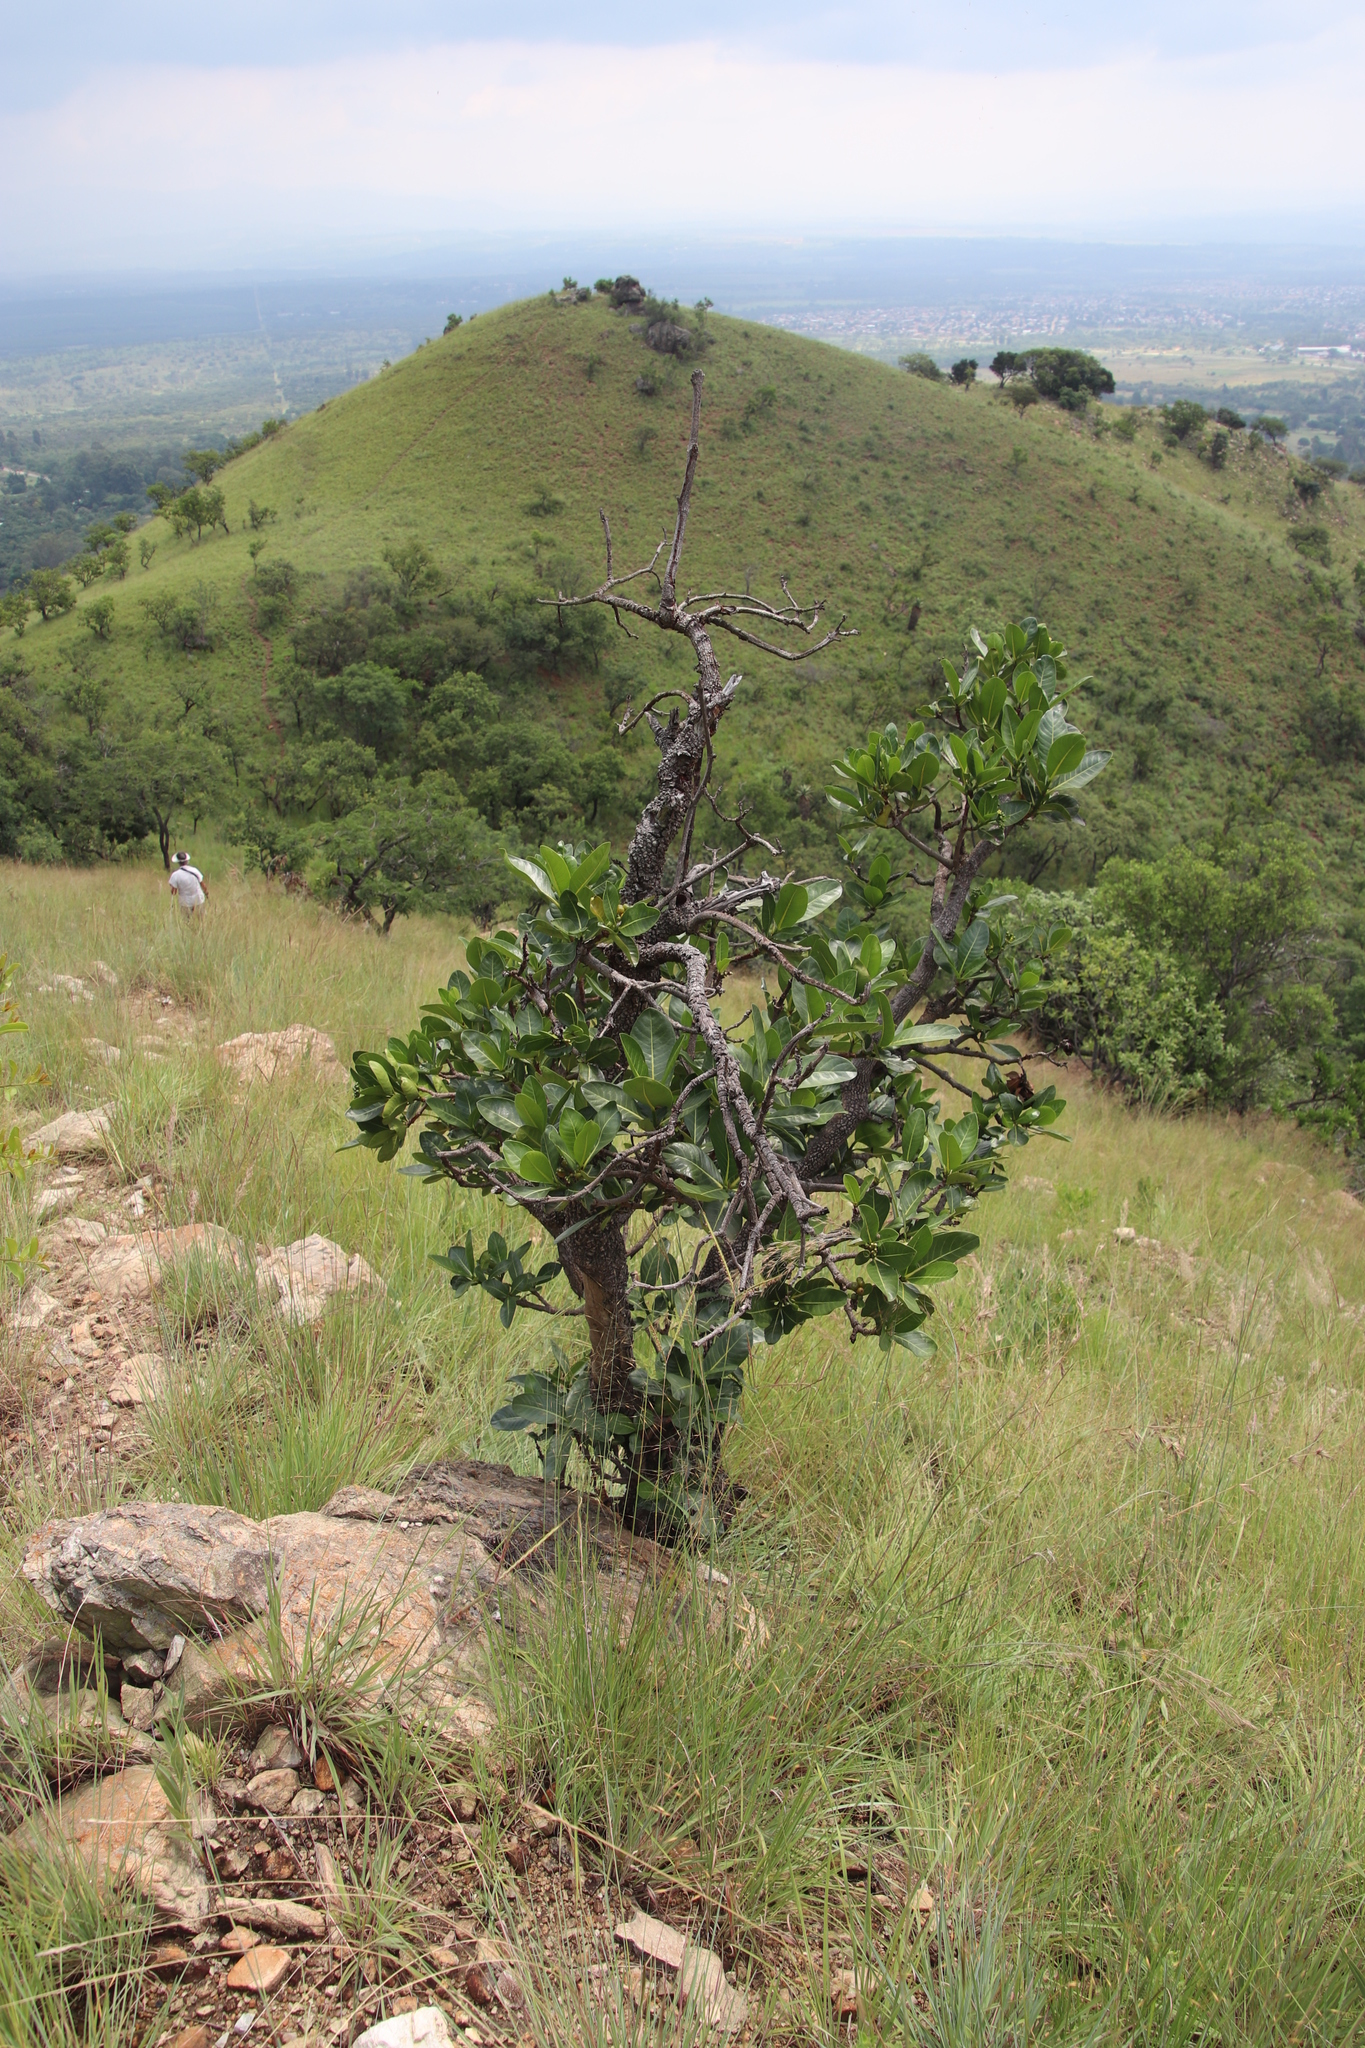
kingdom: Plantae
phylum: Tracheophyta
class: Magnoliopsida
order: Gentianales
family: Rubiaceae
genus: Psychotria
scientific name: Psychotria
